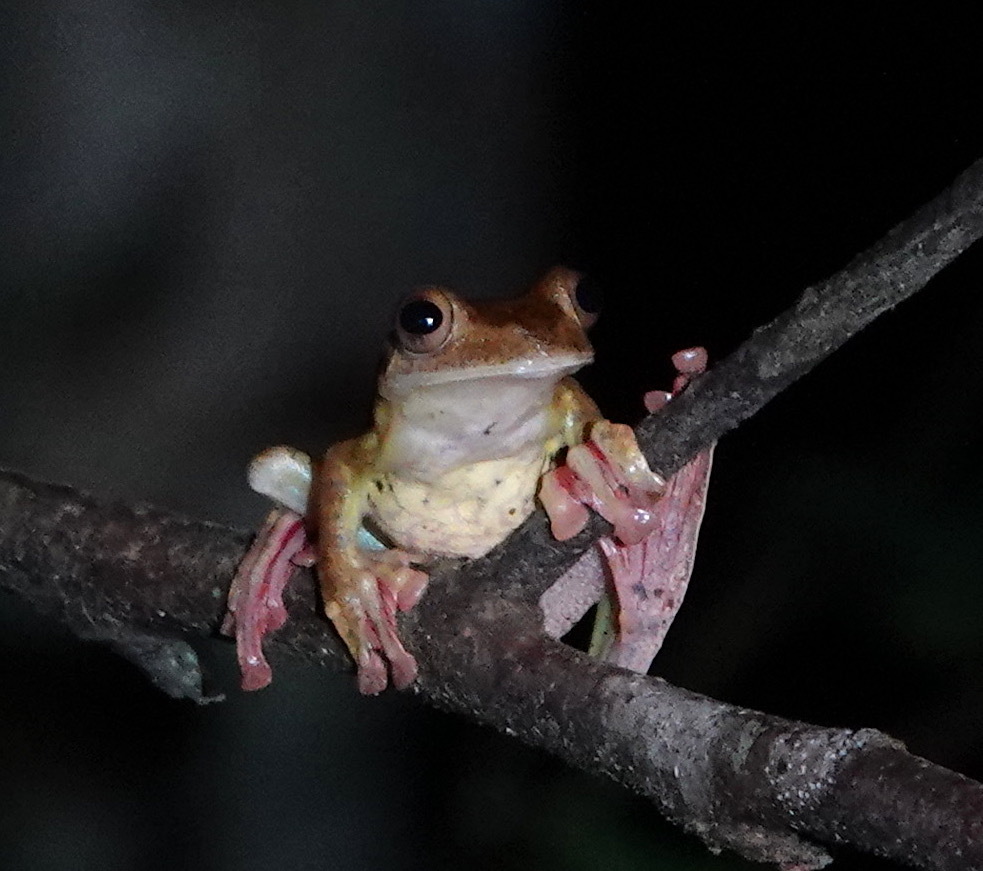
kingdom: Animalia
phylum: Chordata
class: Amphibia
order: Anura
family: Rhacophoridae
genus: Rhacophorus
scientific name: Rhacophorus pardalis
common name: Harlequin tree frog
